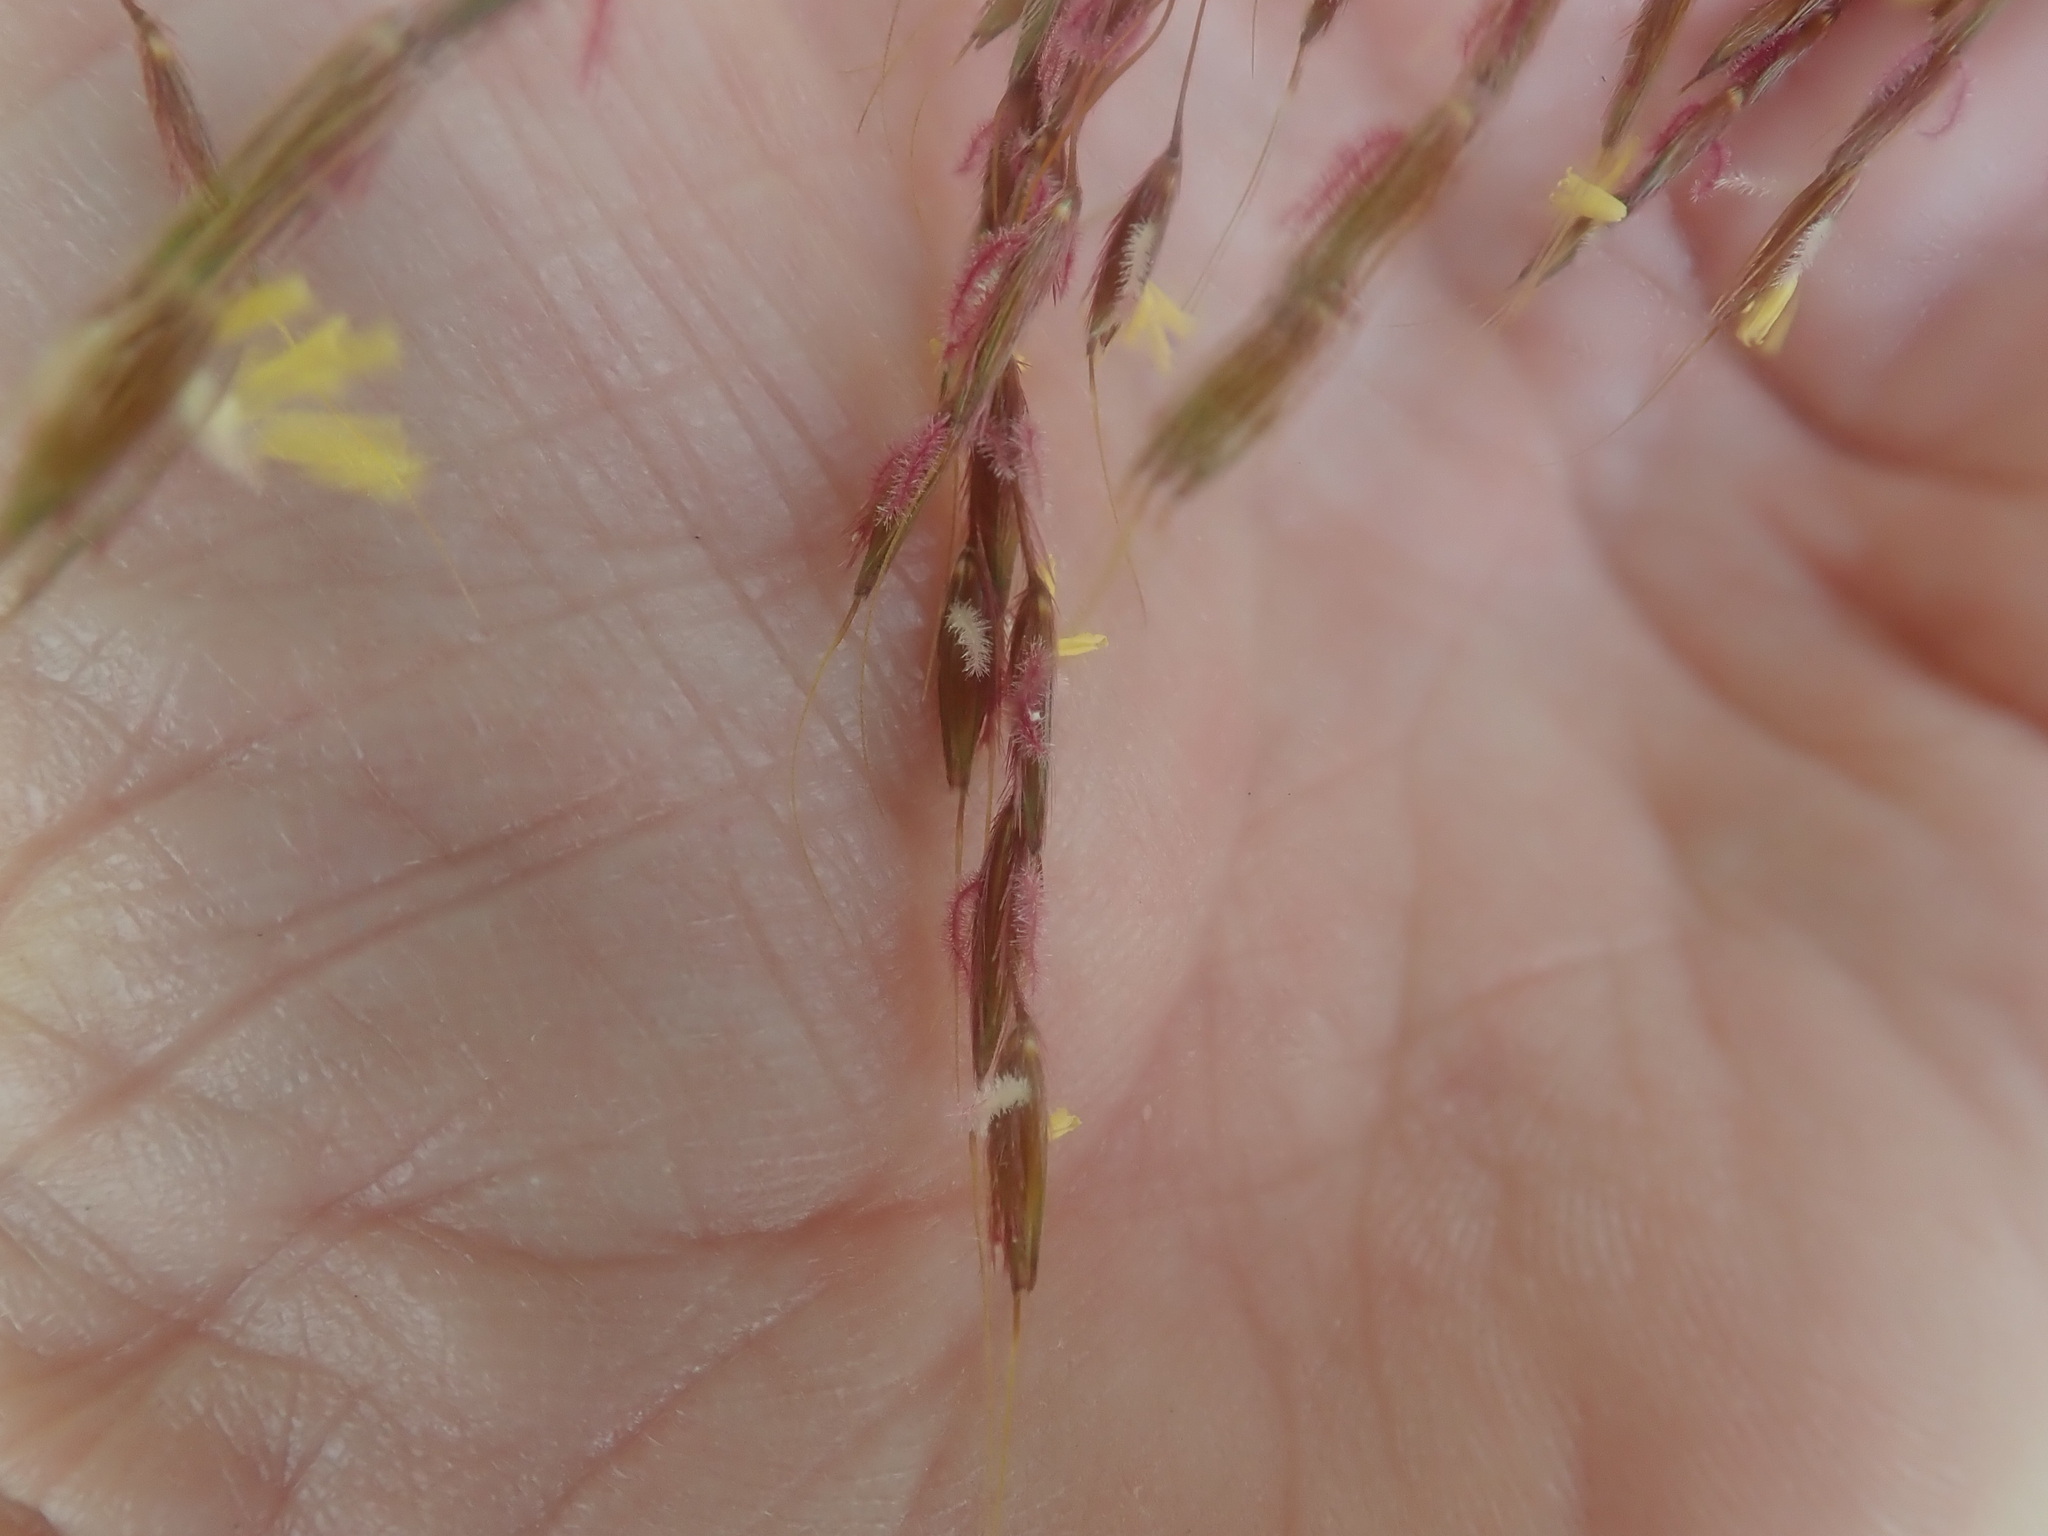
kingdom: Plantae
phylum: Tracheophyta
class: Liliopsida
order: Poales
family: Poaceae
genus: Sorghastrum
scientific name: Sorghastrum nutans
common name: Indian grass
